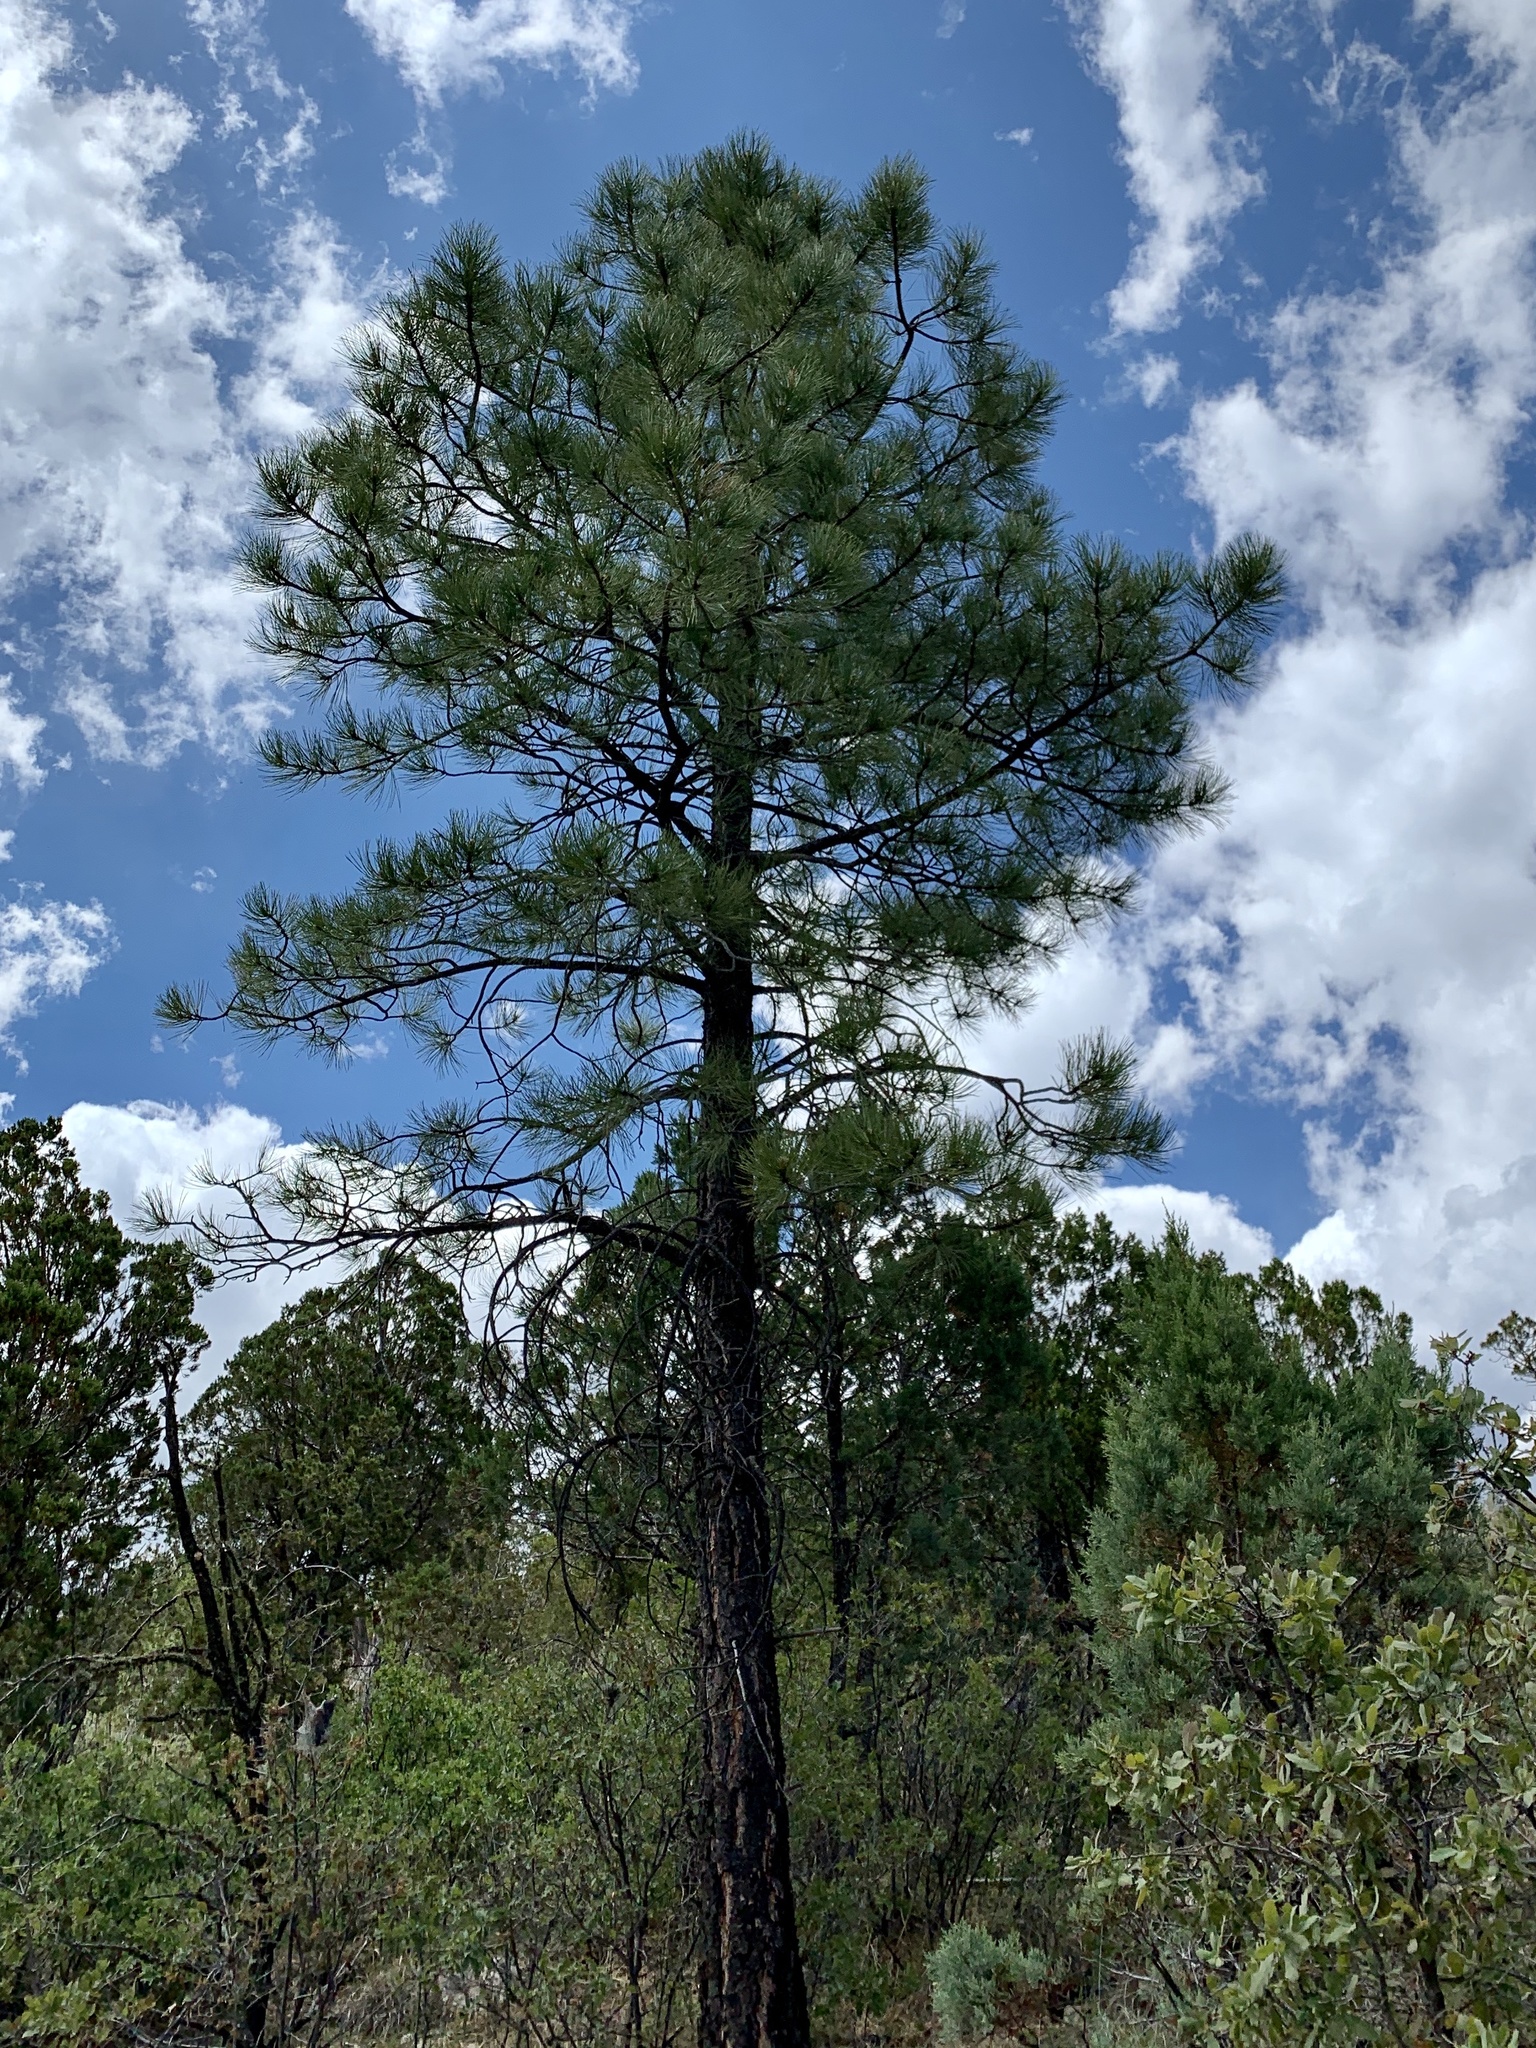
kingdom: Plantae
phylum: Tracheophyta
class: Pinopsida
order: Pinales
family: Pinaceae
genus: Pinus
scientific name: Pinus ponderosa
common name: Western yellow-pine
